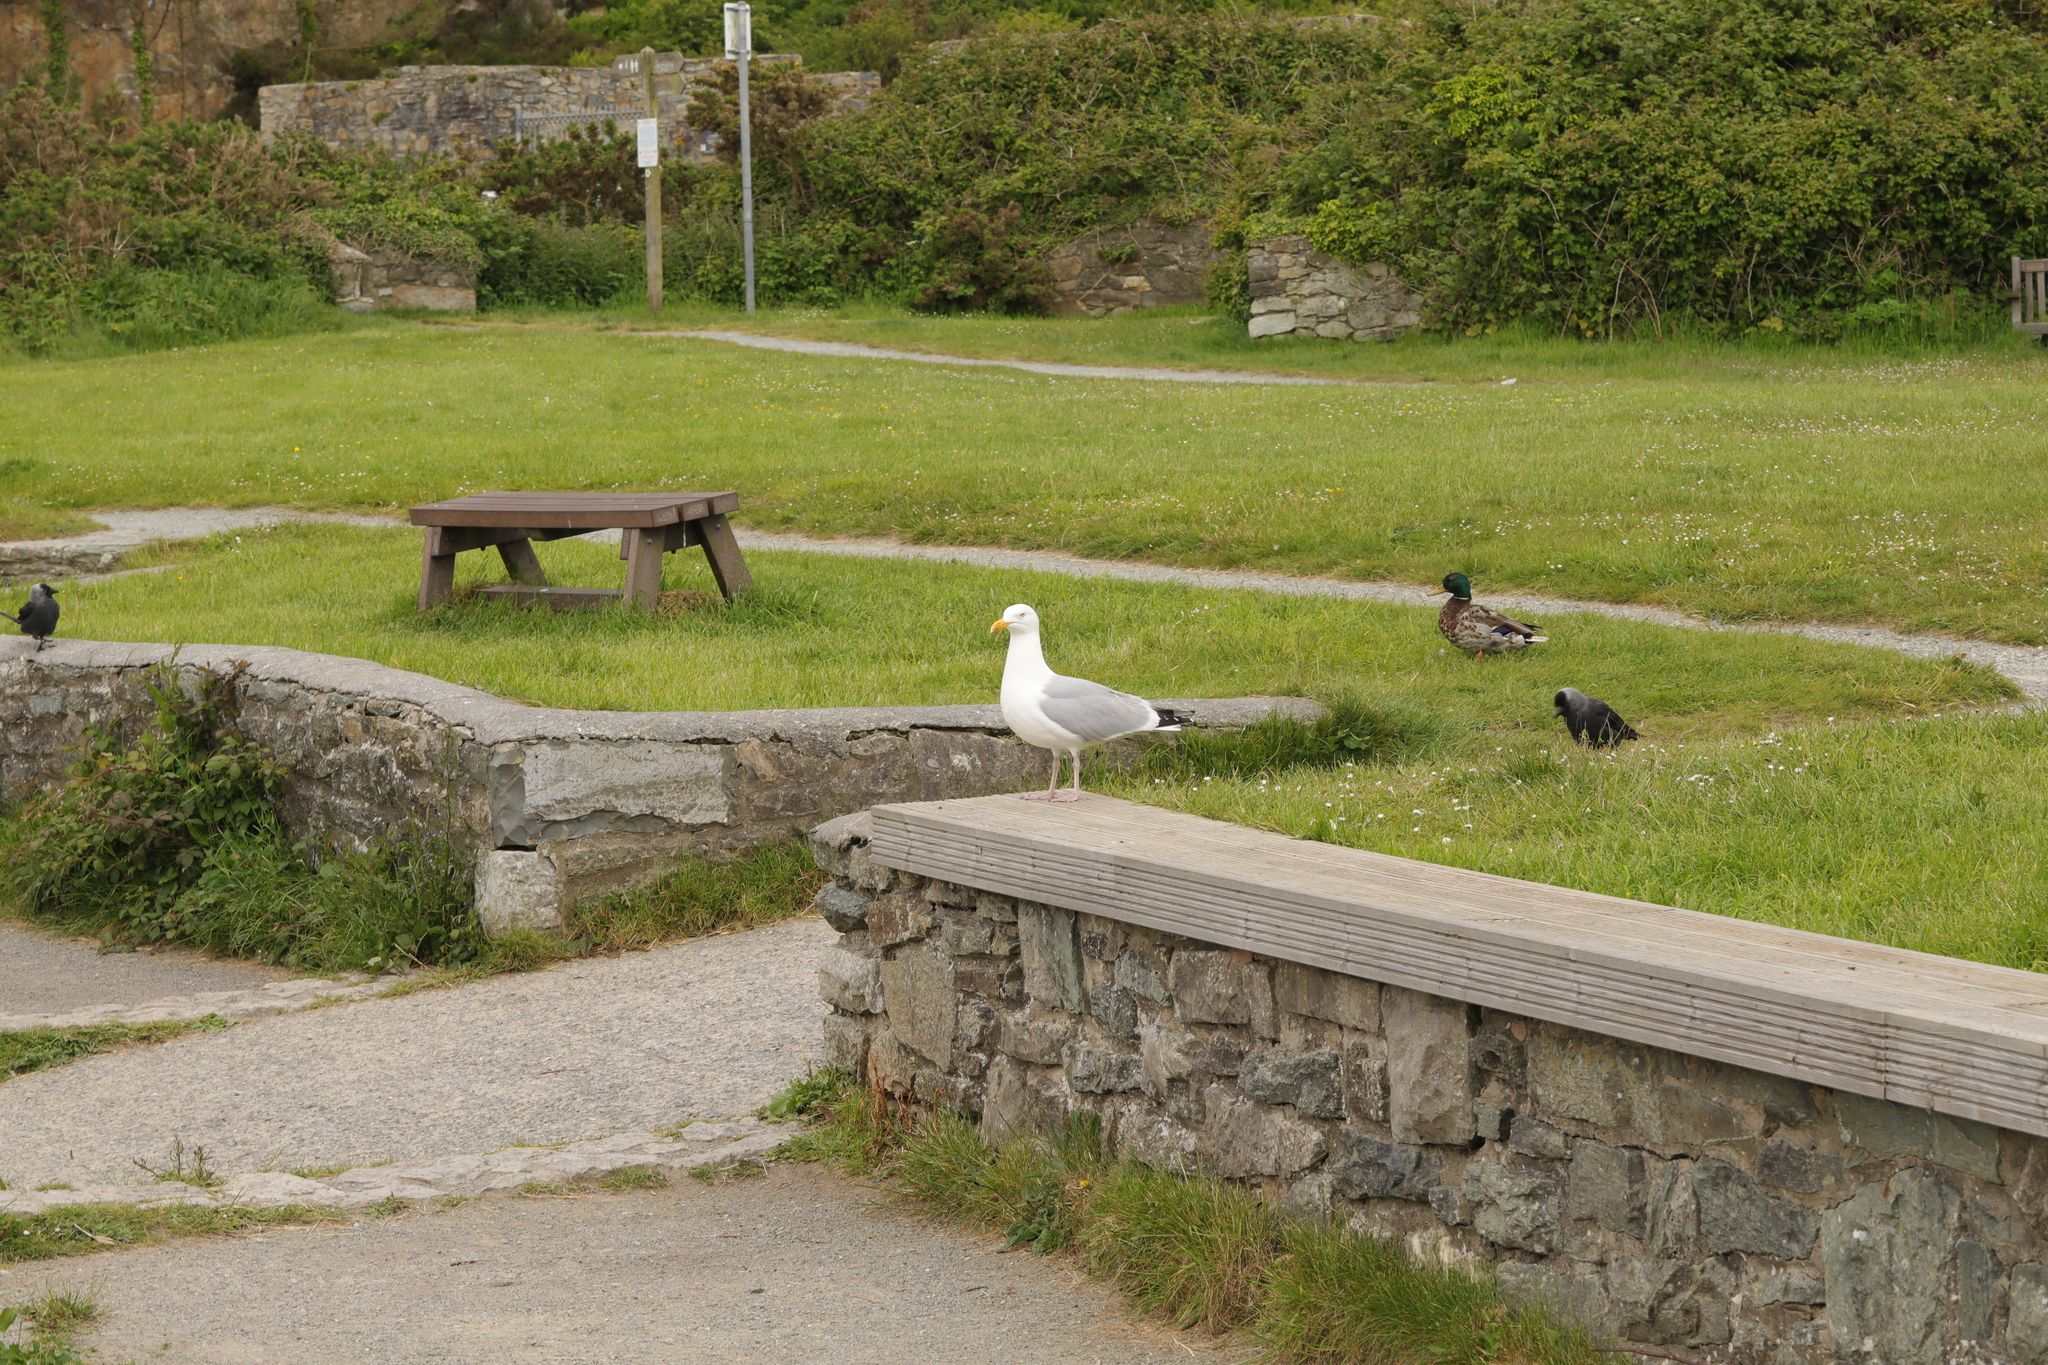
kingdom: Animalia
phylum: Chordata
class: Aves
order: Charadriiformes
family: Laridae
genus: Larus
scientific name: Larus argentatus
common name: Herring gull
